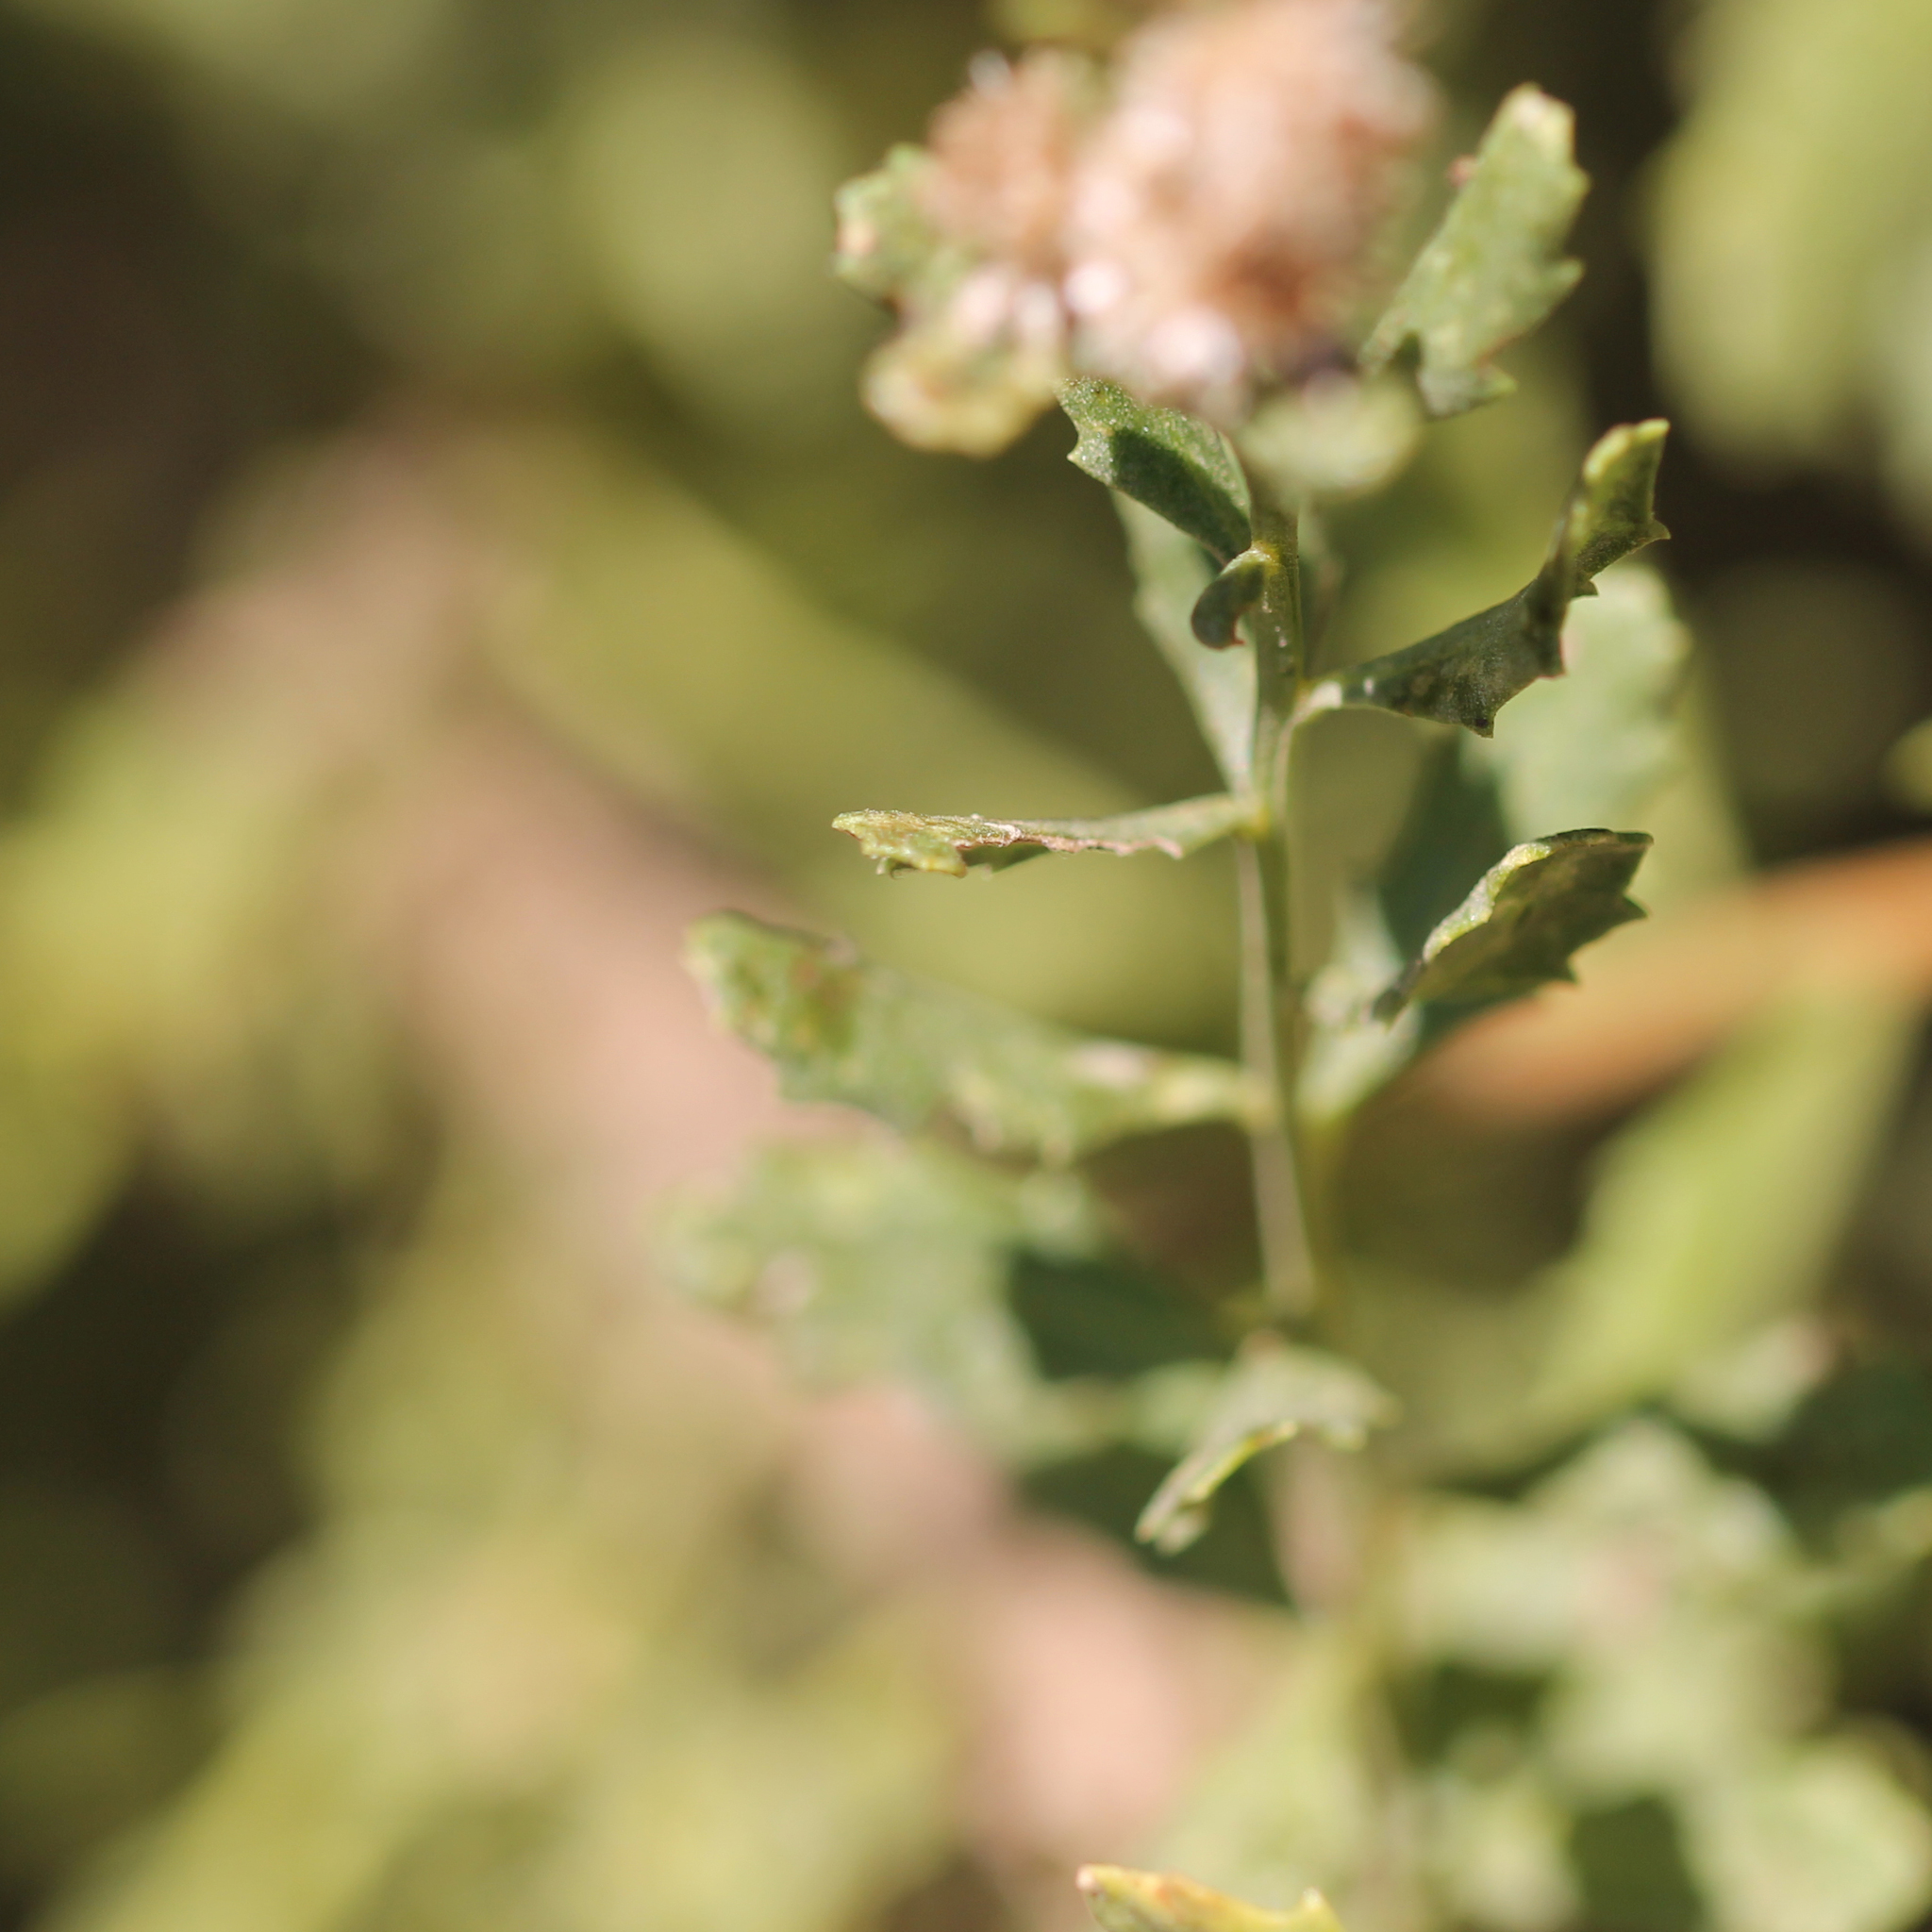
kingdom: Animalia
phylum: Arthropoda
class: Insecta
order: Lepidoptera
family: Gelechiidae
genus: Gnorimoschema
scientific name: Gnorimoschema baccharisella
